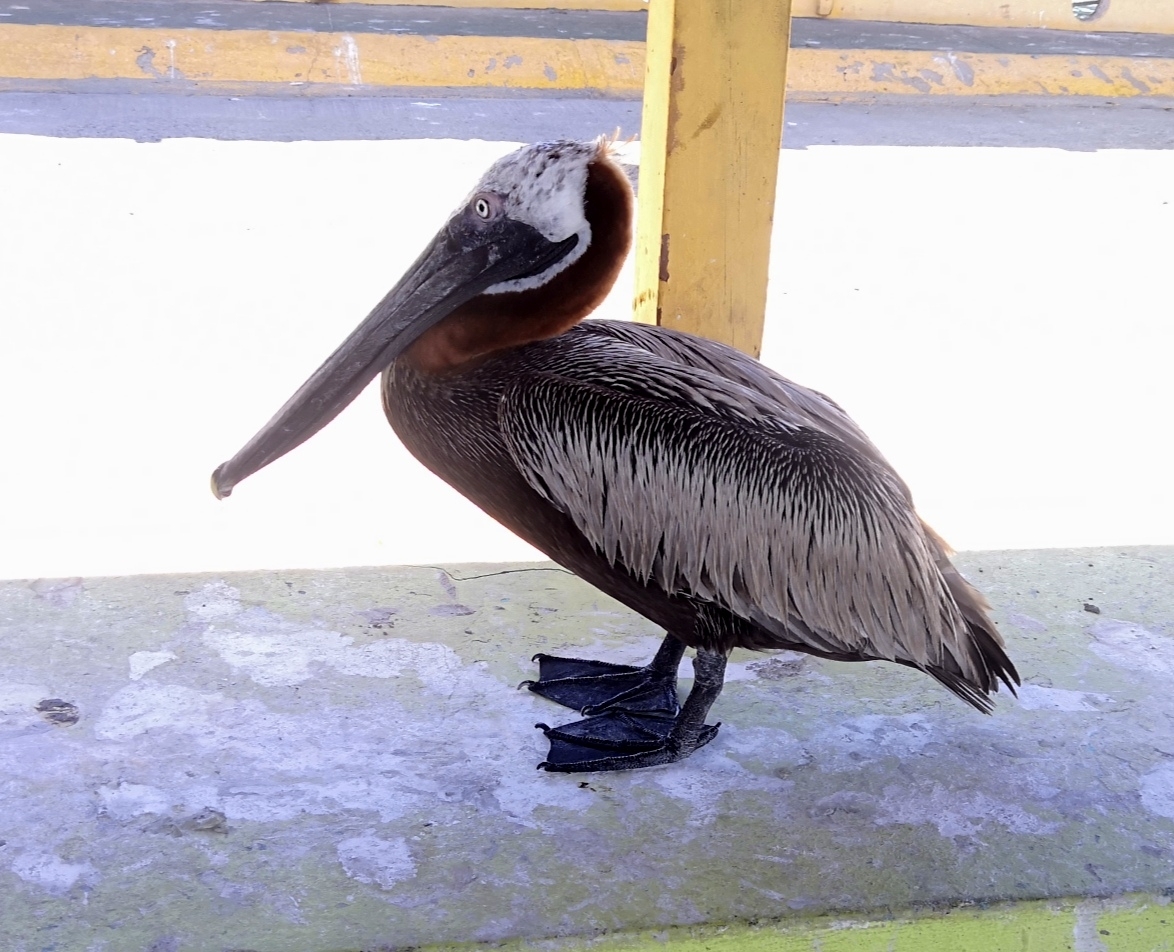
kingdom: Animalia
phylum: Chordata
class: Aves
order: Pelecaniformes
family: Pelecanidae
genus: Pelecanus
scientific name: Pelecanus occidentalis
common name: Brown pelican
